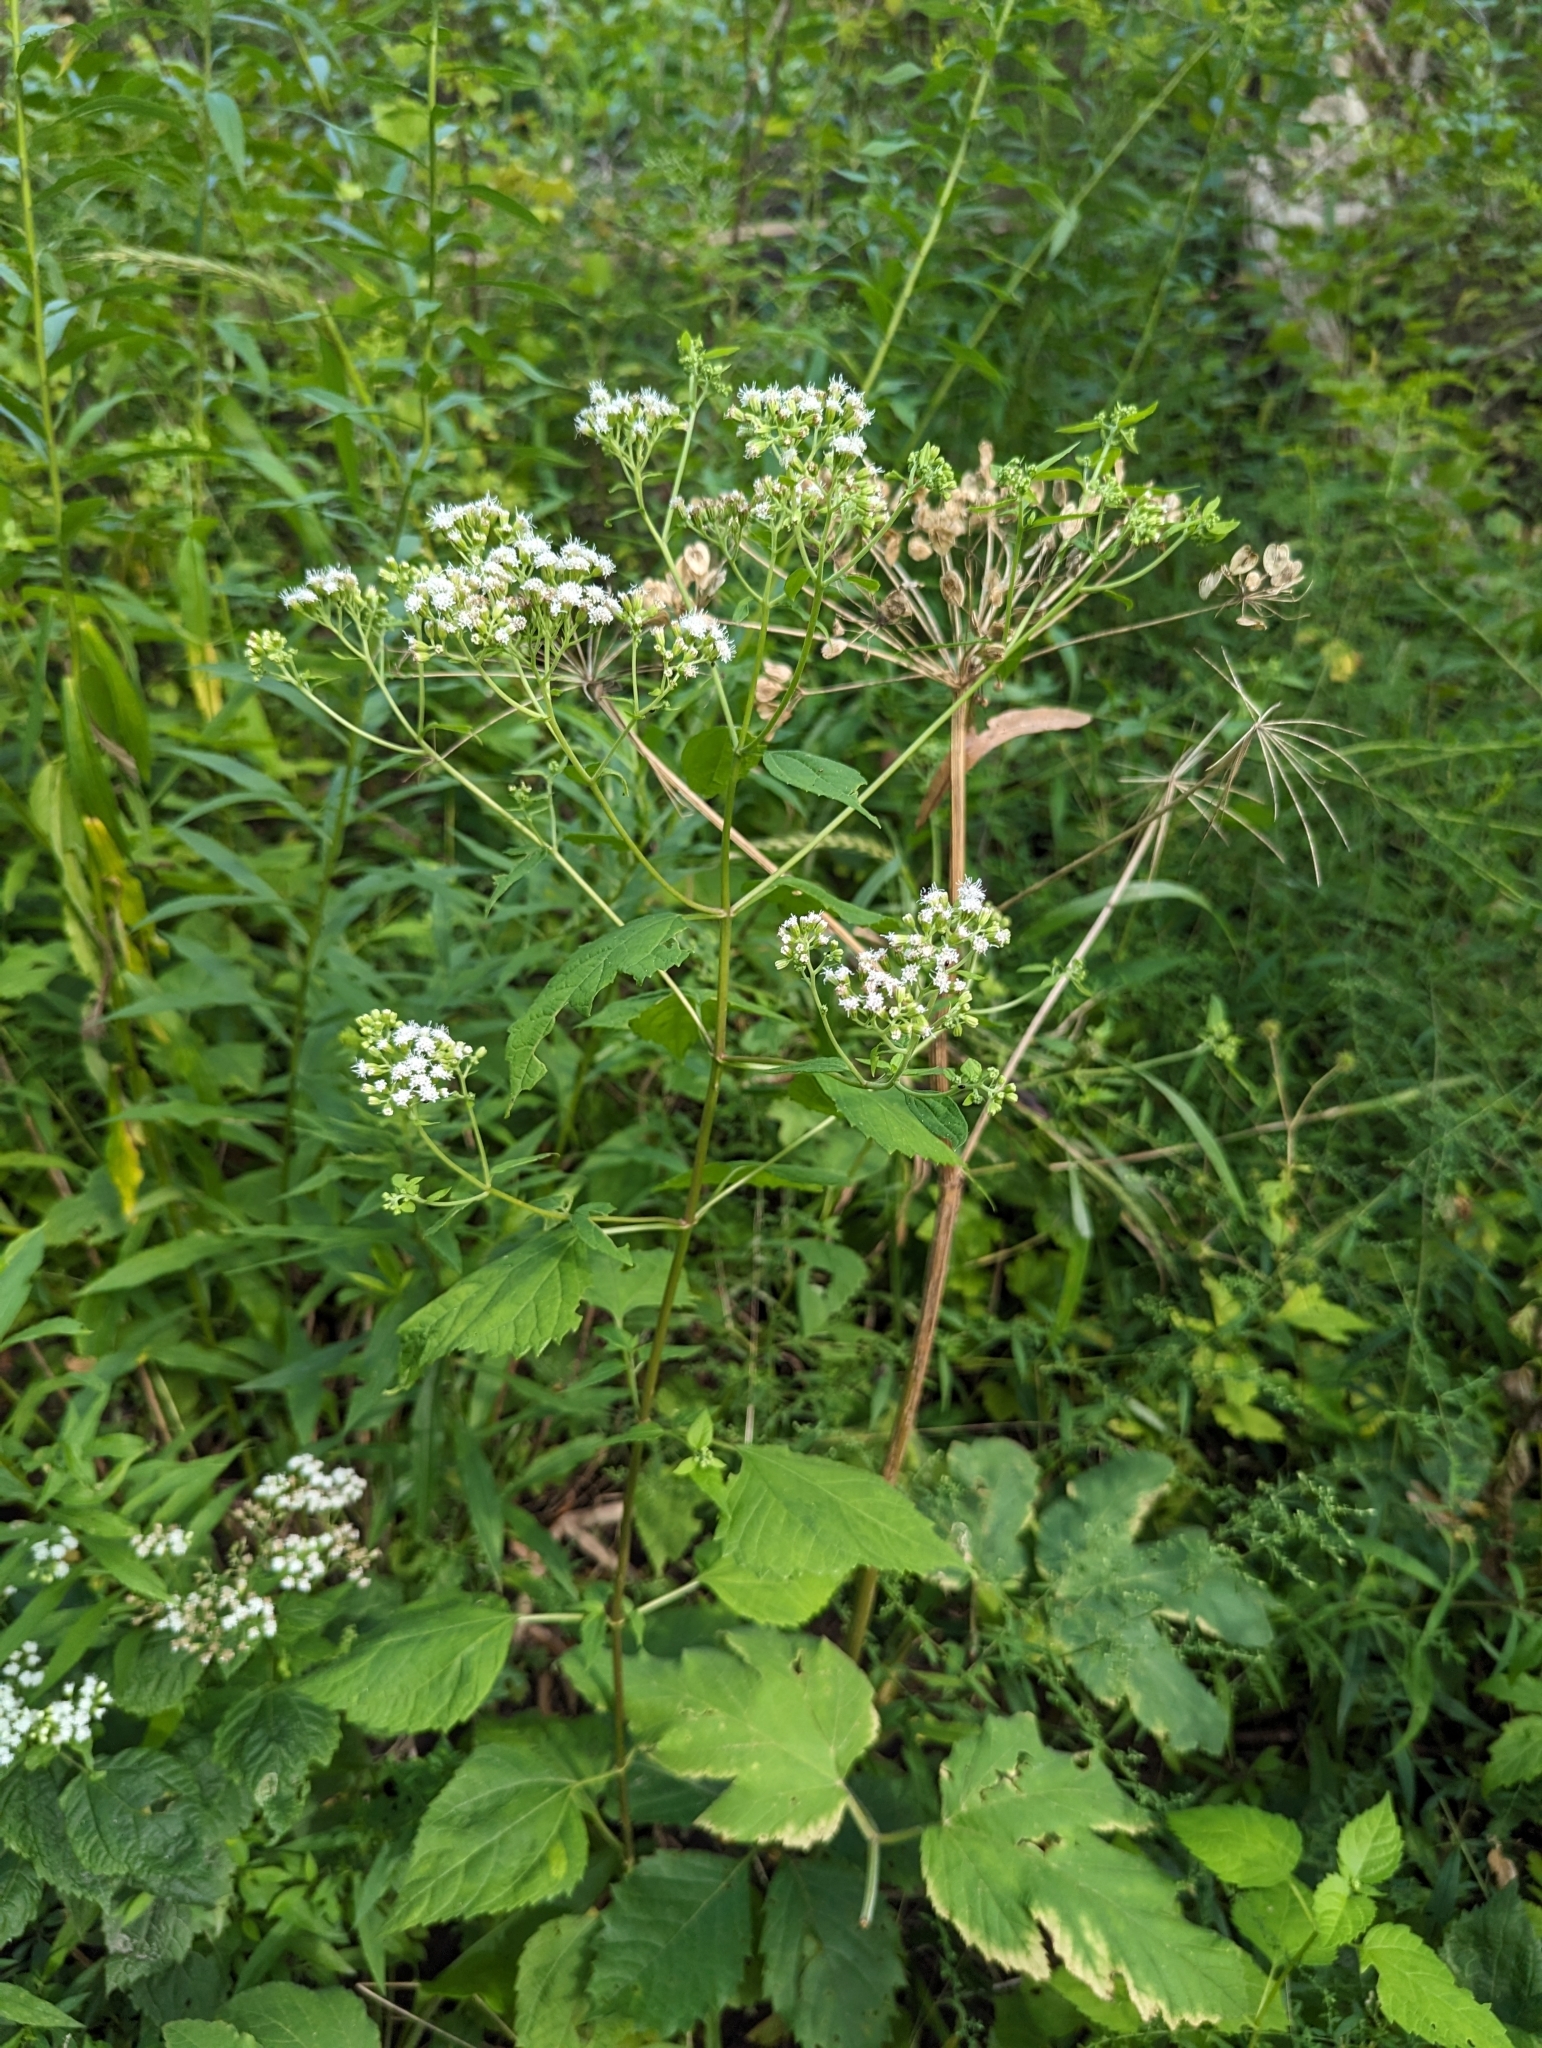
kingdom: Plantae
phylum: Tracheophyta
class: Magnoliopsida
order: Asterales
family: Asteraceae
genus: Ageratina
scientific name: Ageratina altissima
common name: White snakeroot
